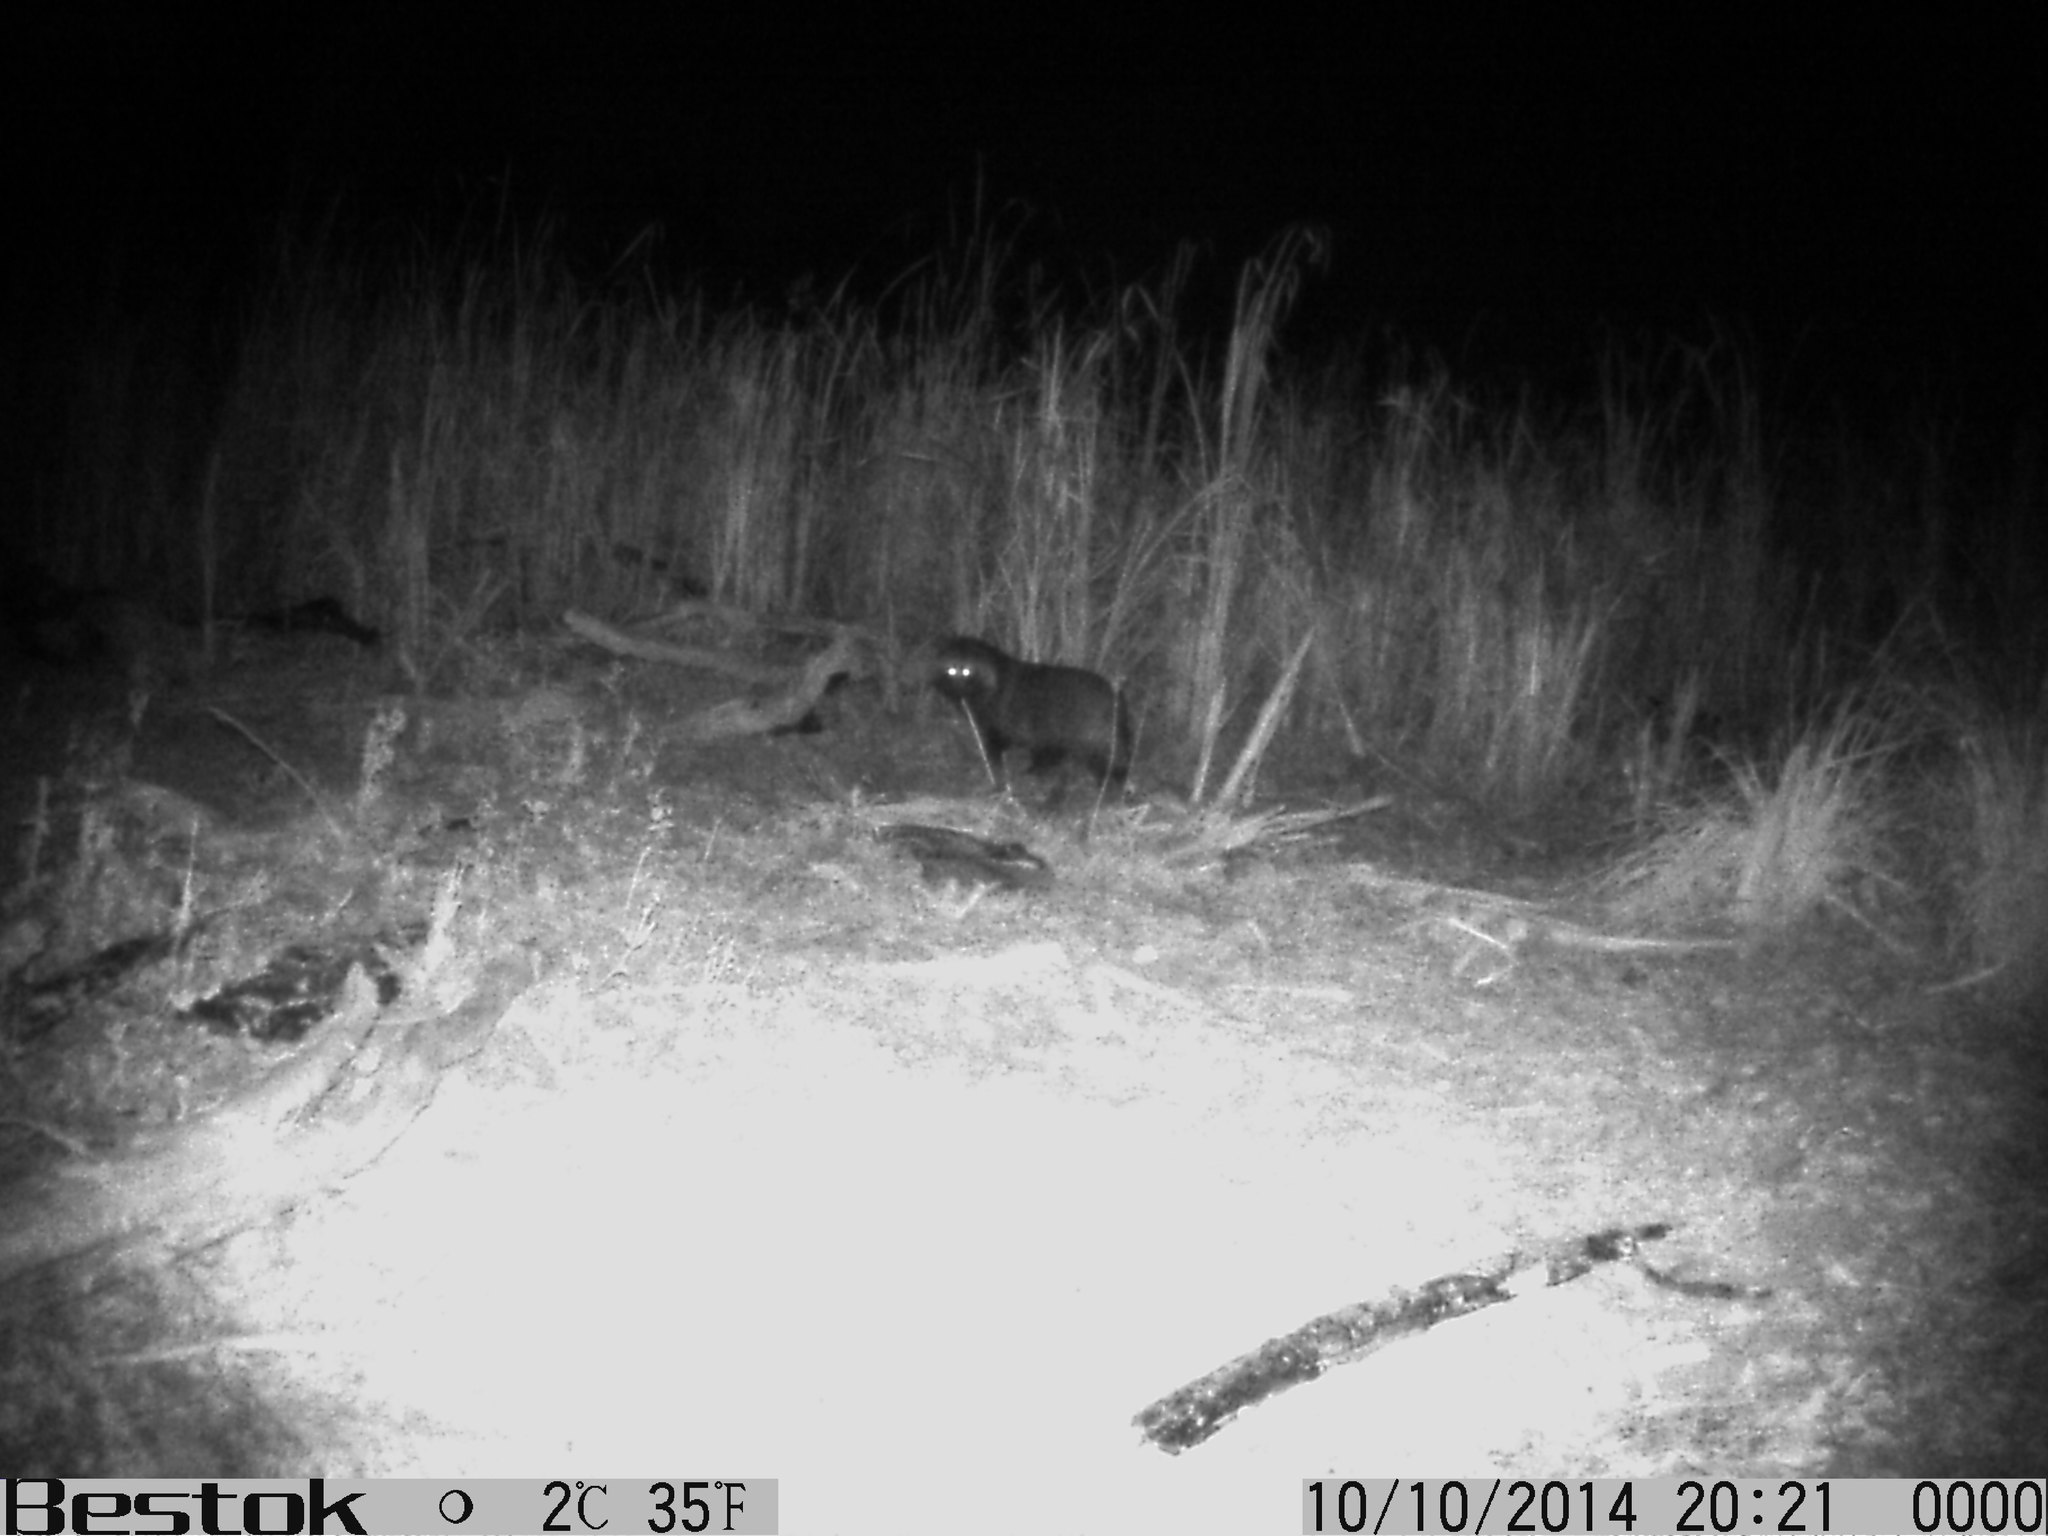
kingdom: Animalia
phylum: Chordata
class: Mammalia
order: Carnivora
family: Canidae
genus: Nyctereutes
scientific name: Nyctereutes procyonoides
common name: Raccoon dog
